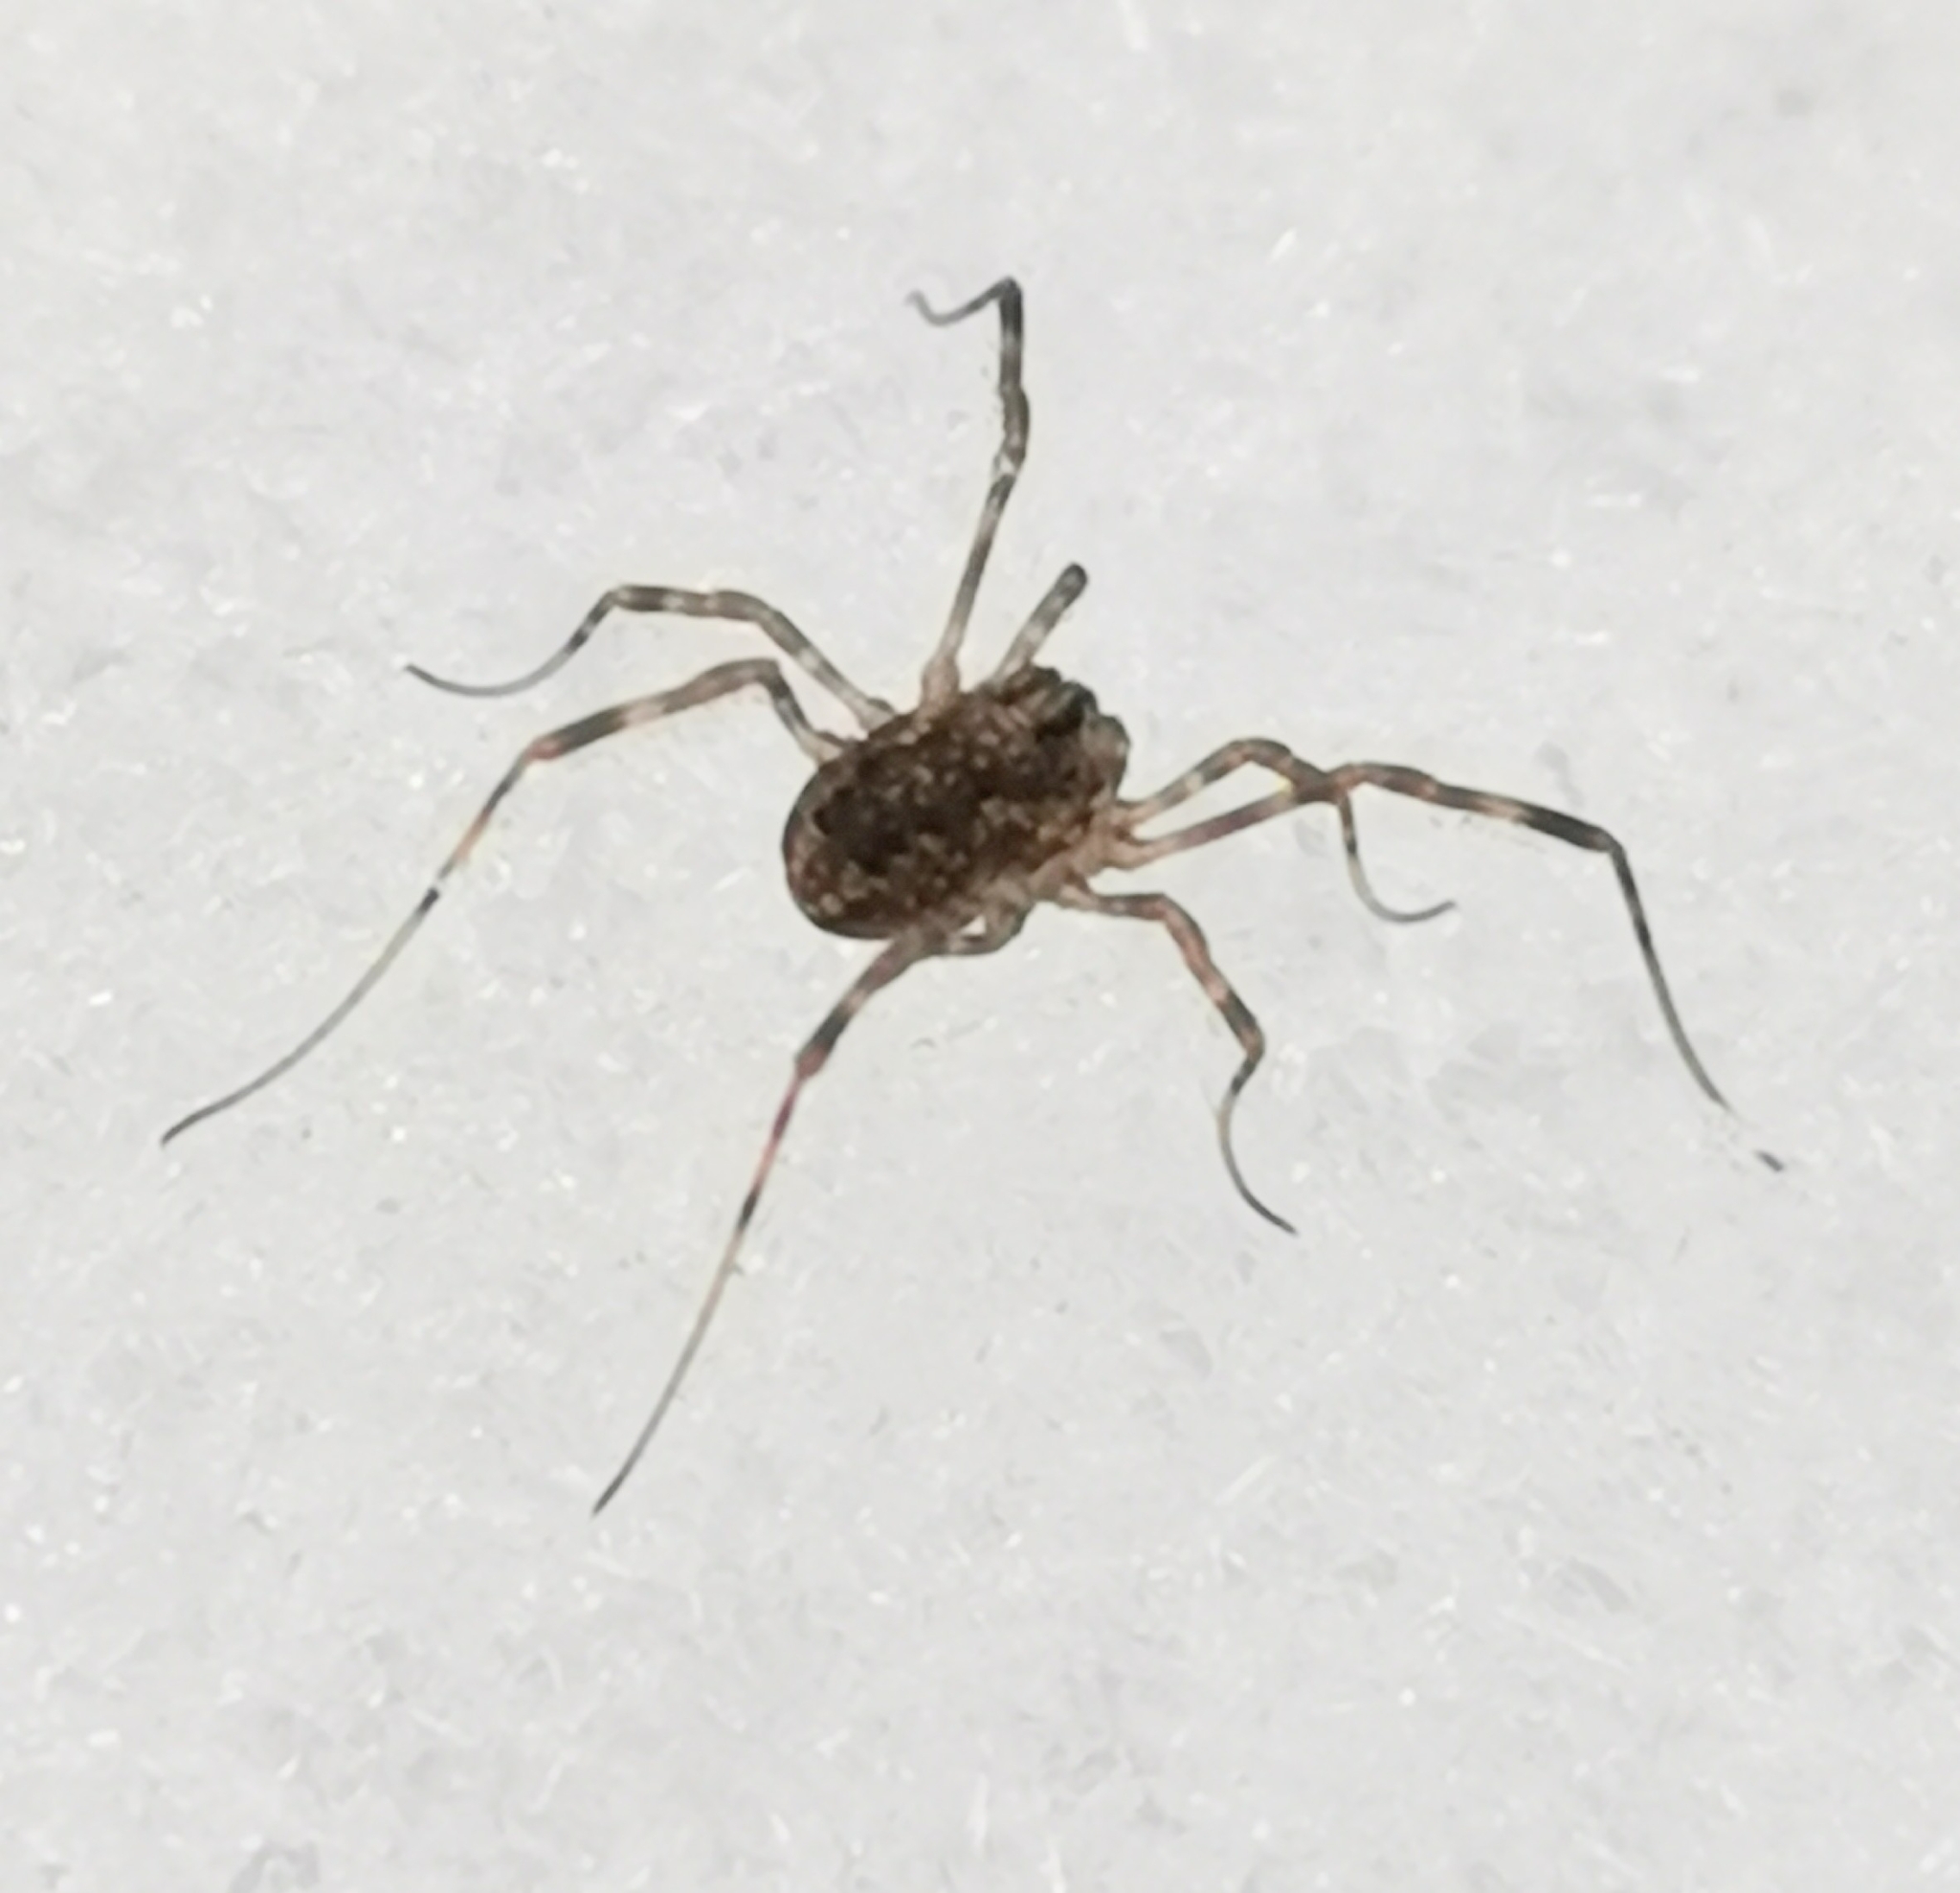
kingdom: Animalia
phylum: Arthropoda
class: Arachnida
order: Opiliones
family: Phalangiidae
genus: Rilaena
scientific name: Rilaena triangularis
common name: Spring harvestman
